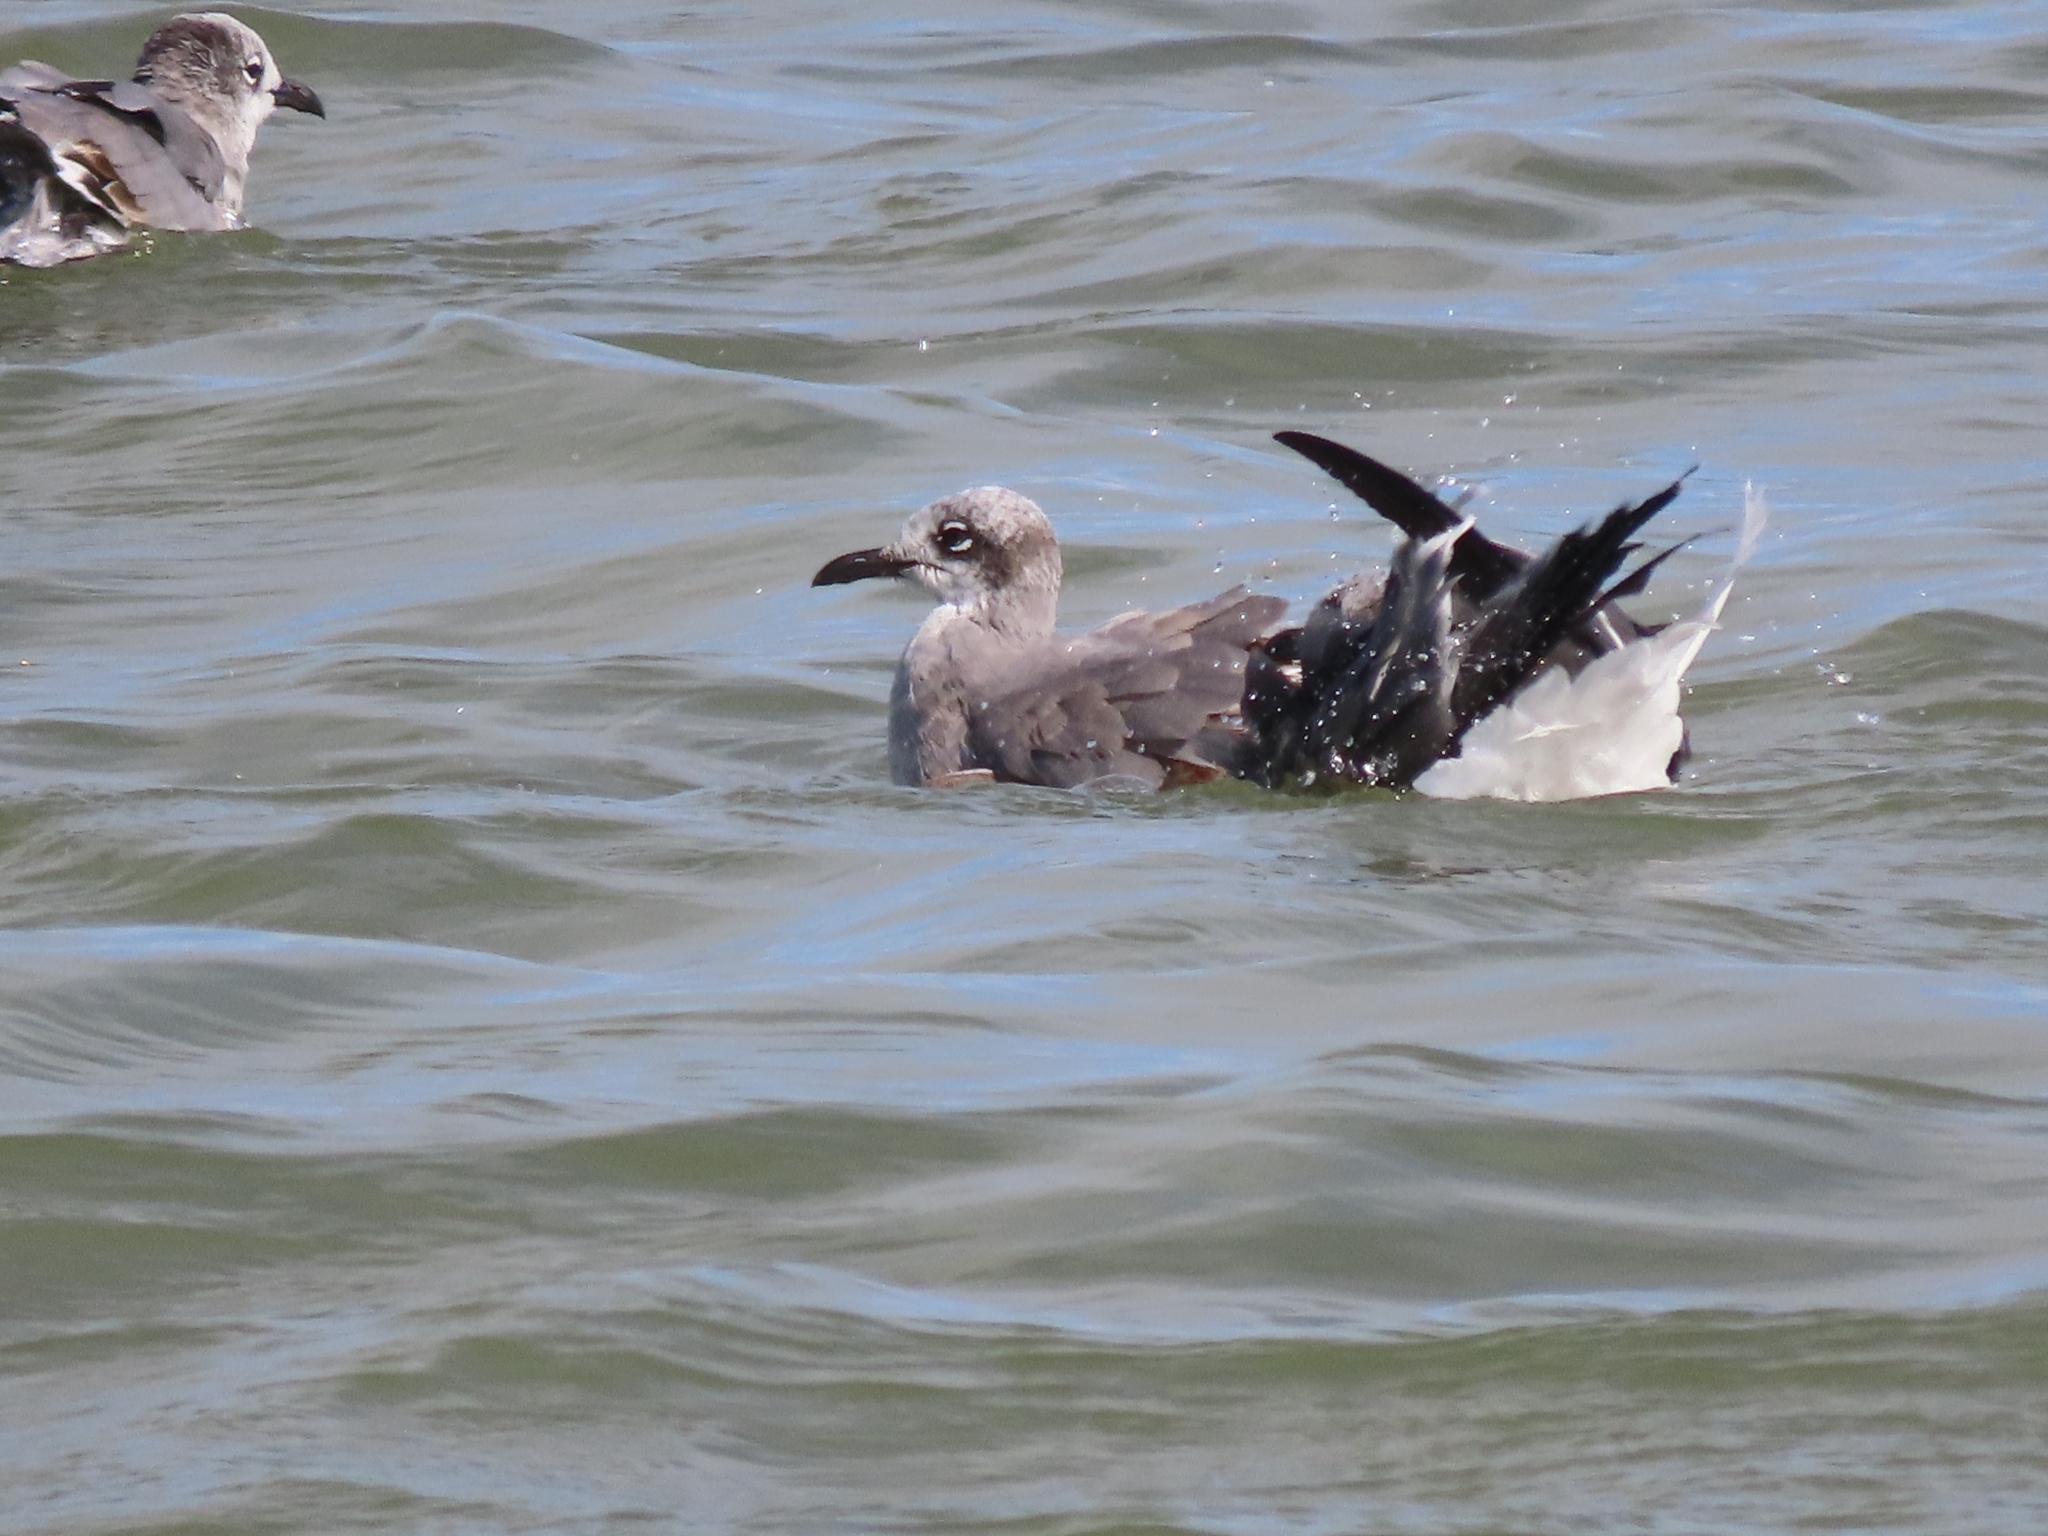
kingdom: Animalia
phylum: Chordata
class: Aves
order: Charadriiformes
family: Laridae
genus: Leucophaeus
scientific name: Leucophaeus atricilla
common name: Laughing gull
